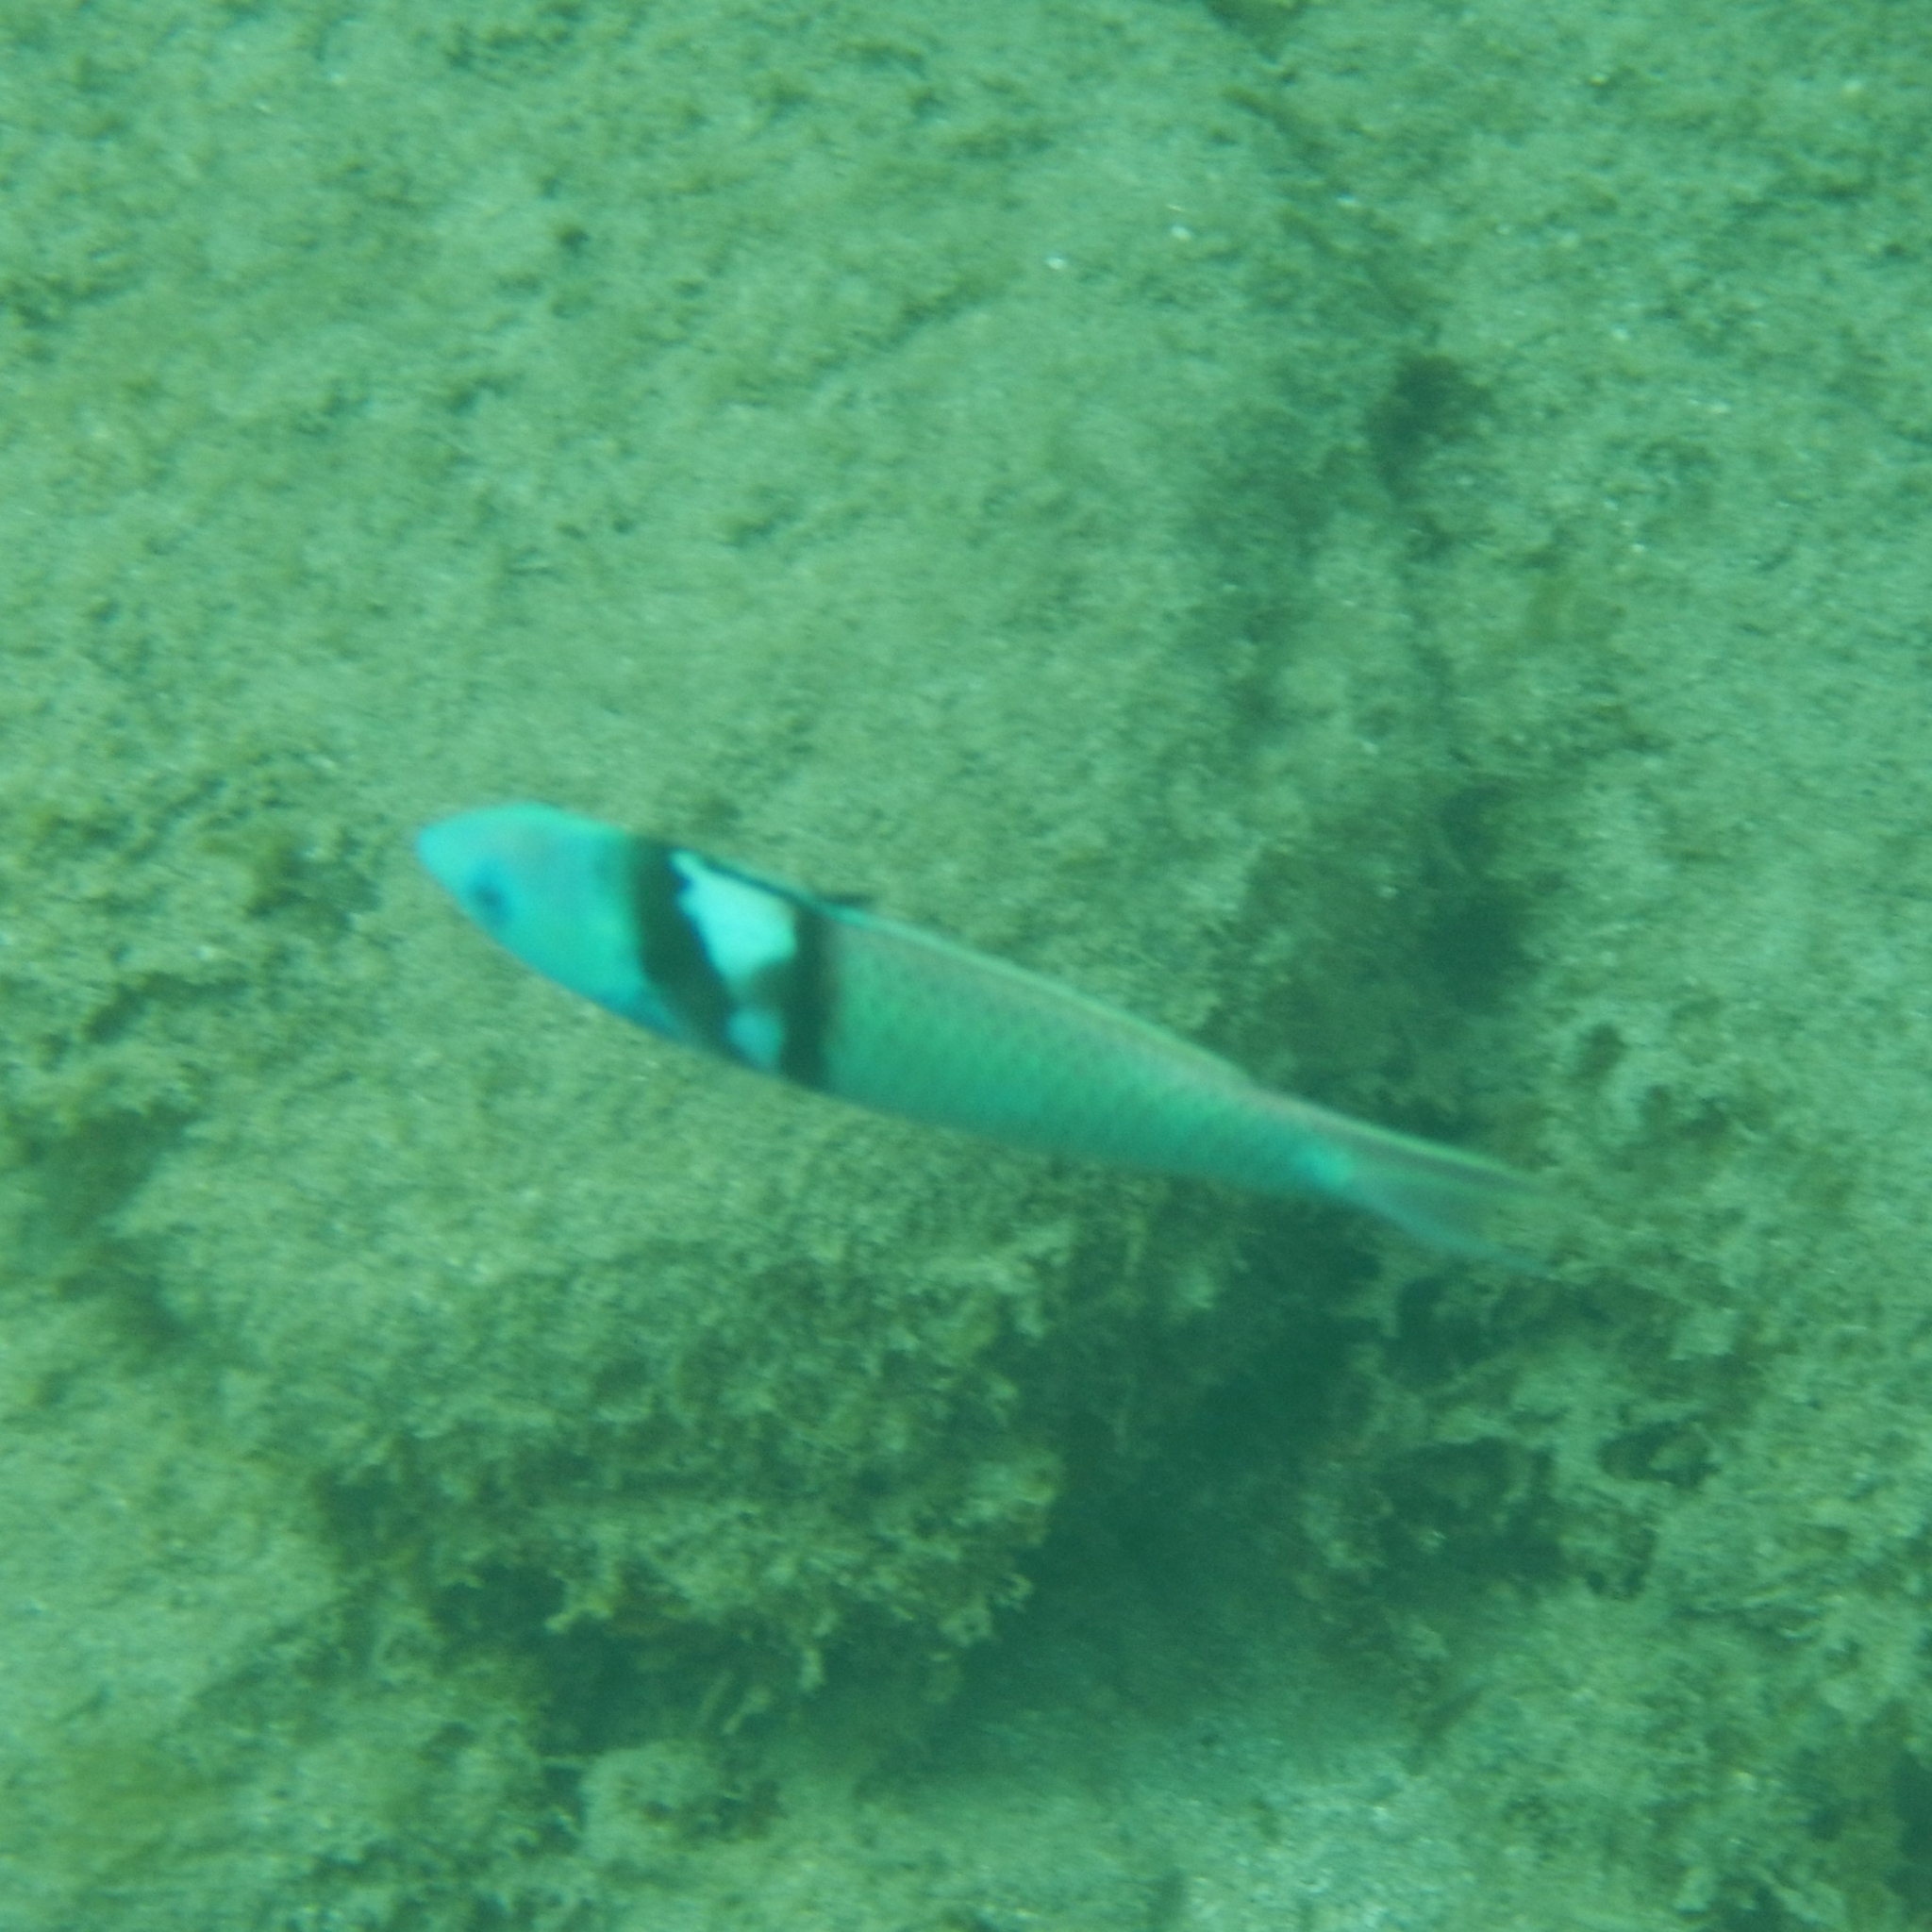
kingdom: Animalia
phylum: Chordata
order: Perciformes
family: Labridae
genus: Thalassoma
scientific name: Thalassoma bifasciatum
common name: Bluehead wrasse
